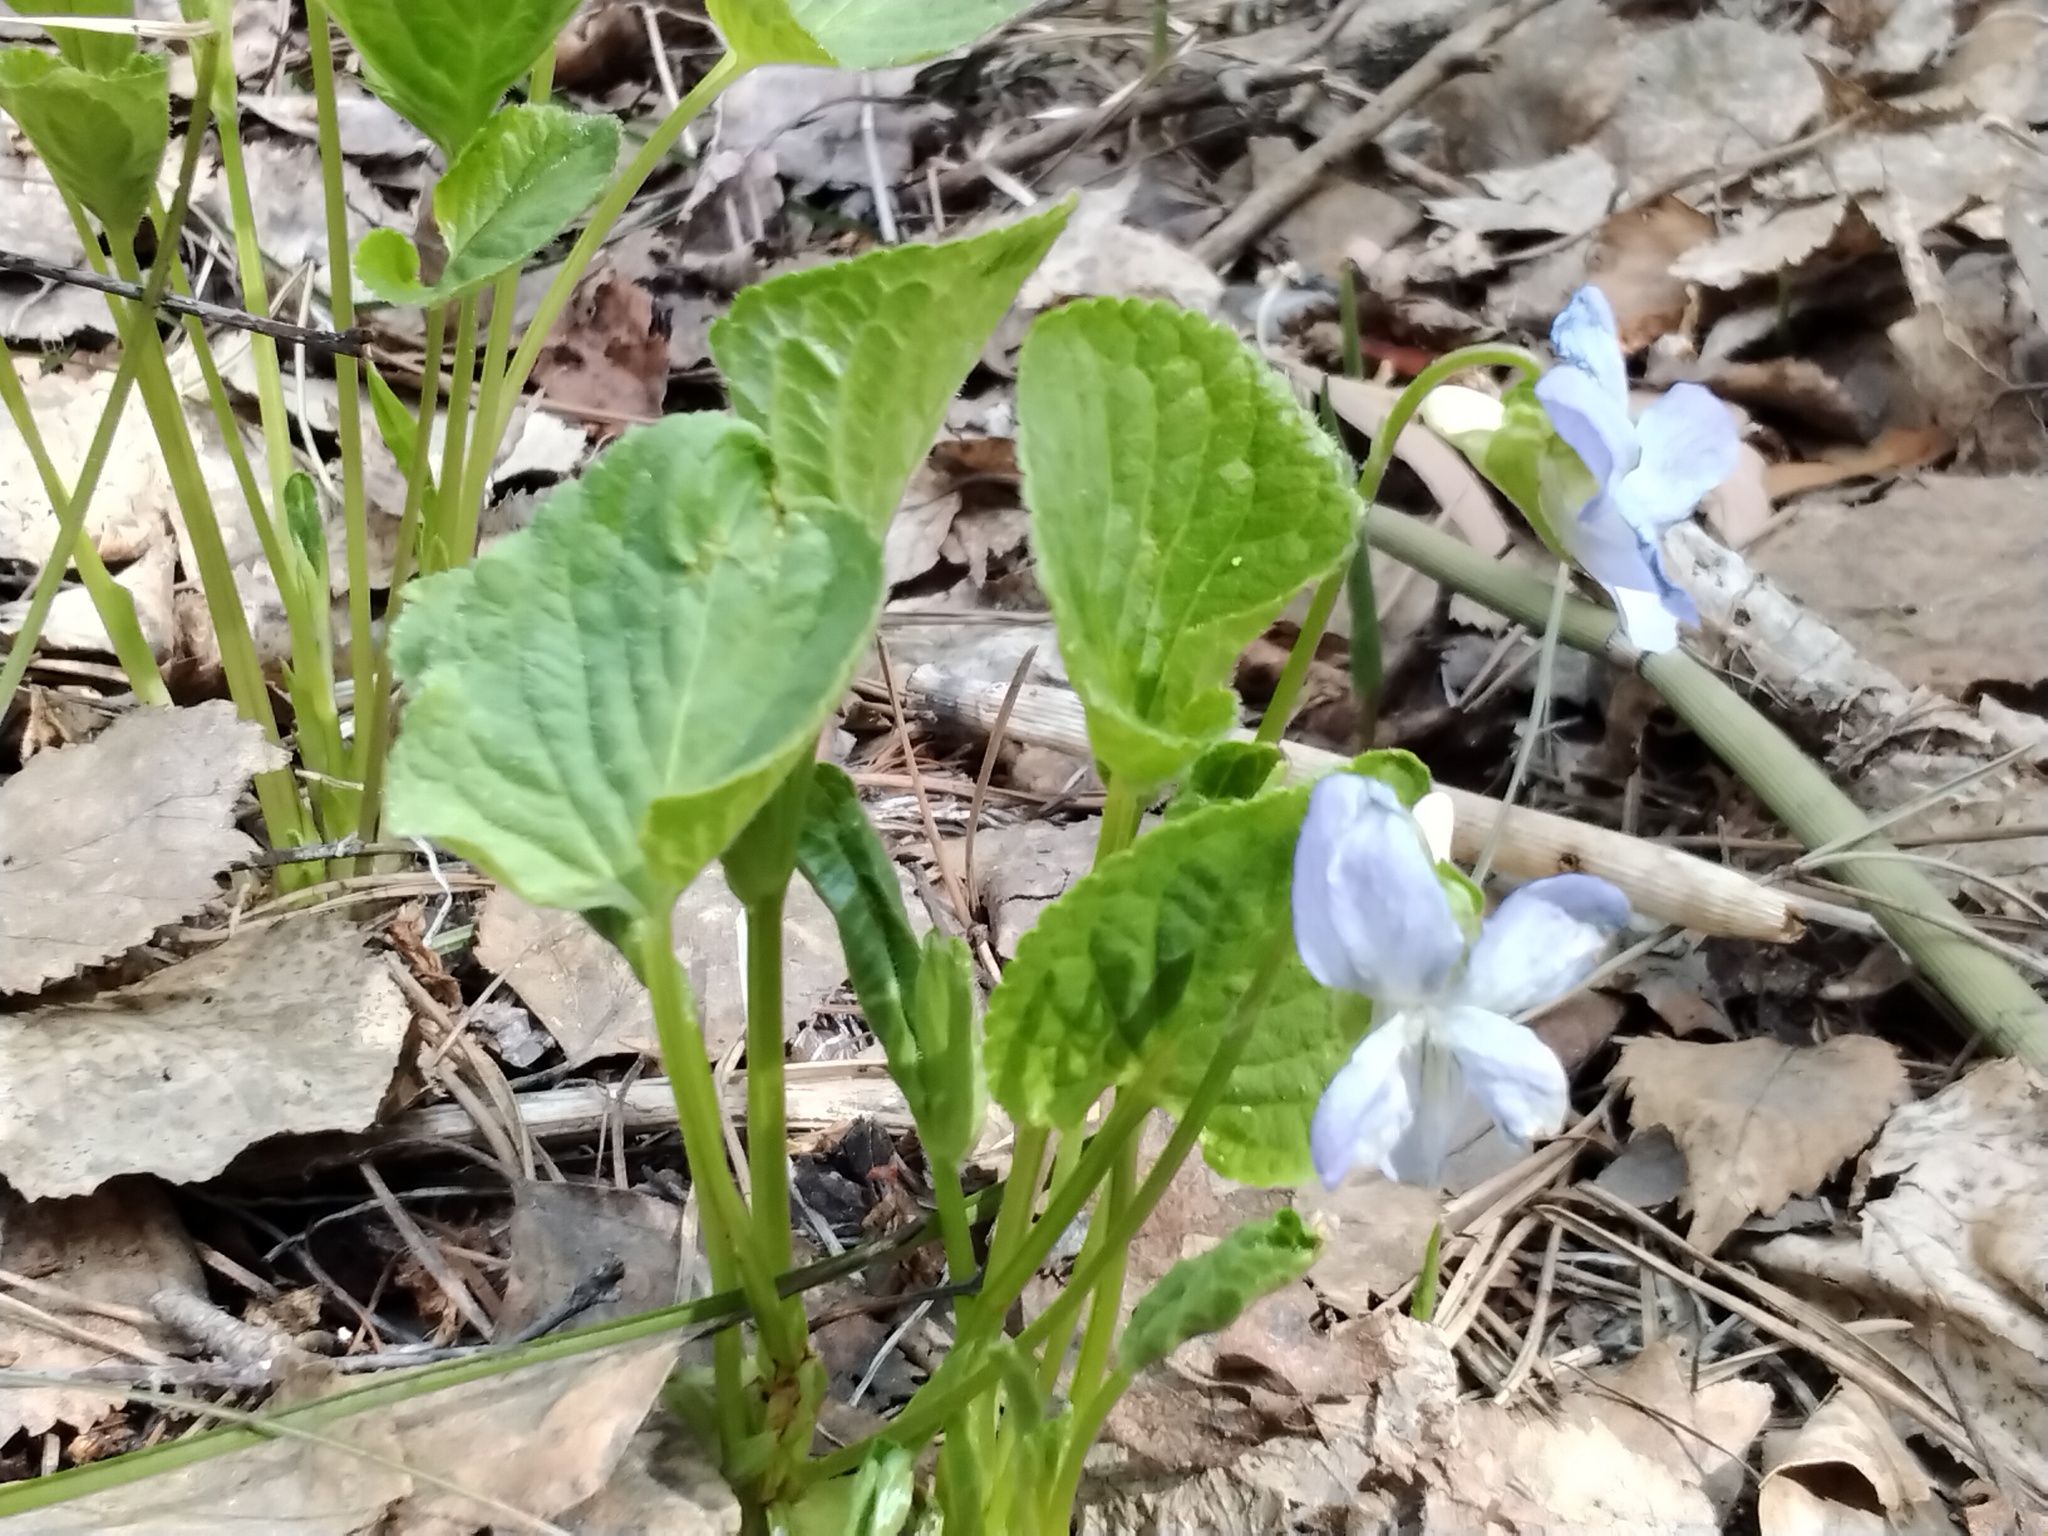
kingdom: Plantae
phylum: Tracheophyta
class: Magnoliopsida
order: Malpighiales
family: Violaceae
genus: Viola
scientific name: Viola mirabilis
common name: Wonder violet
